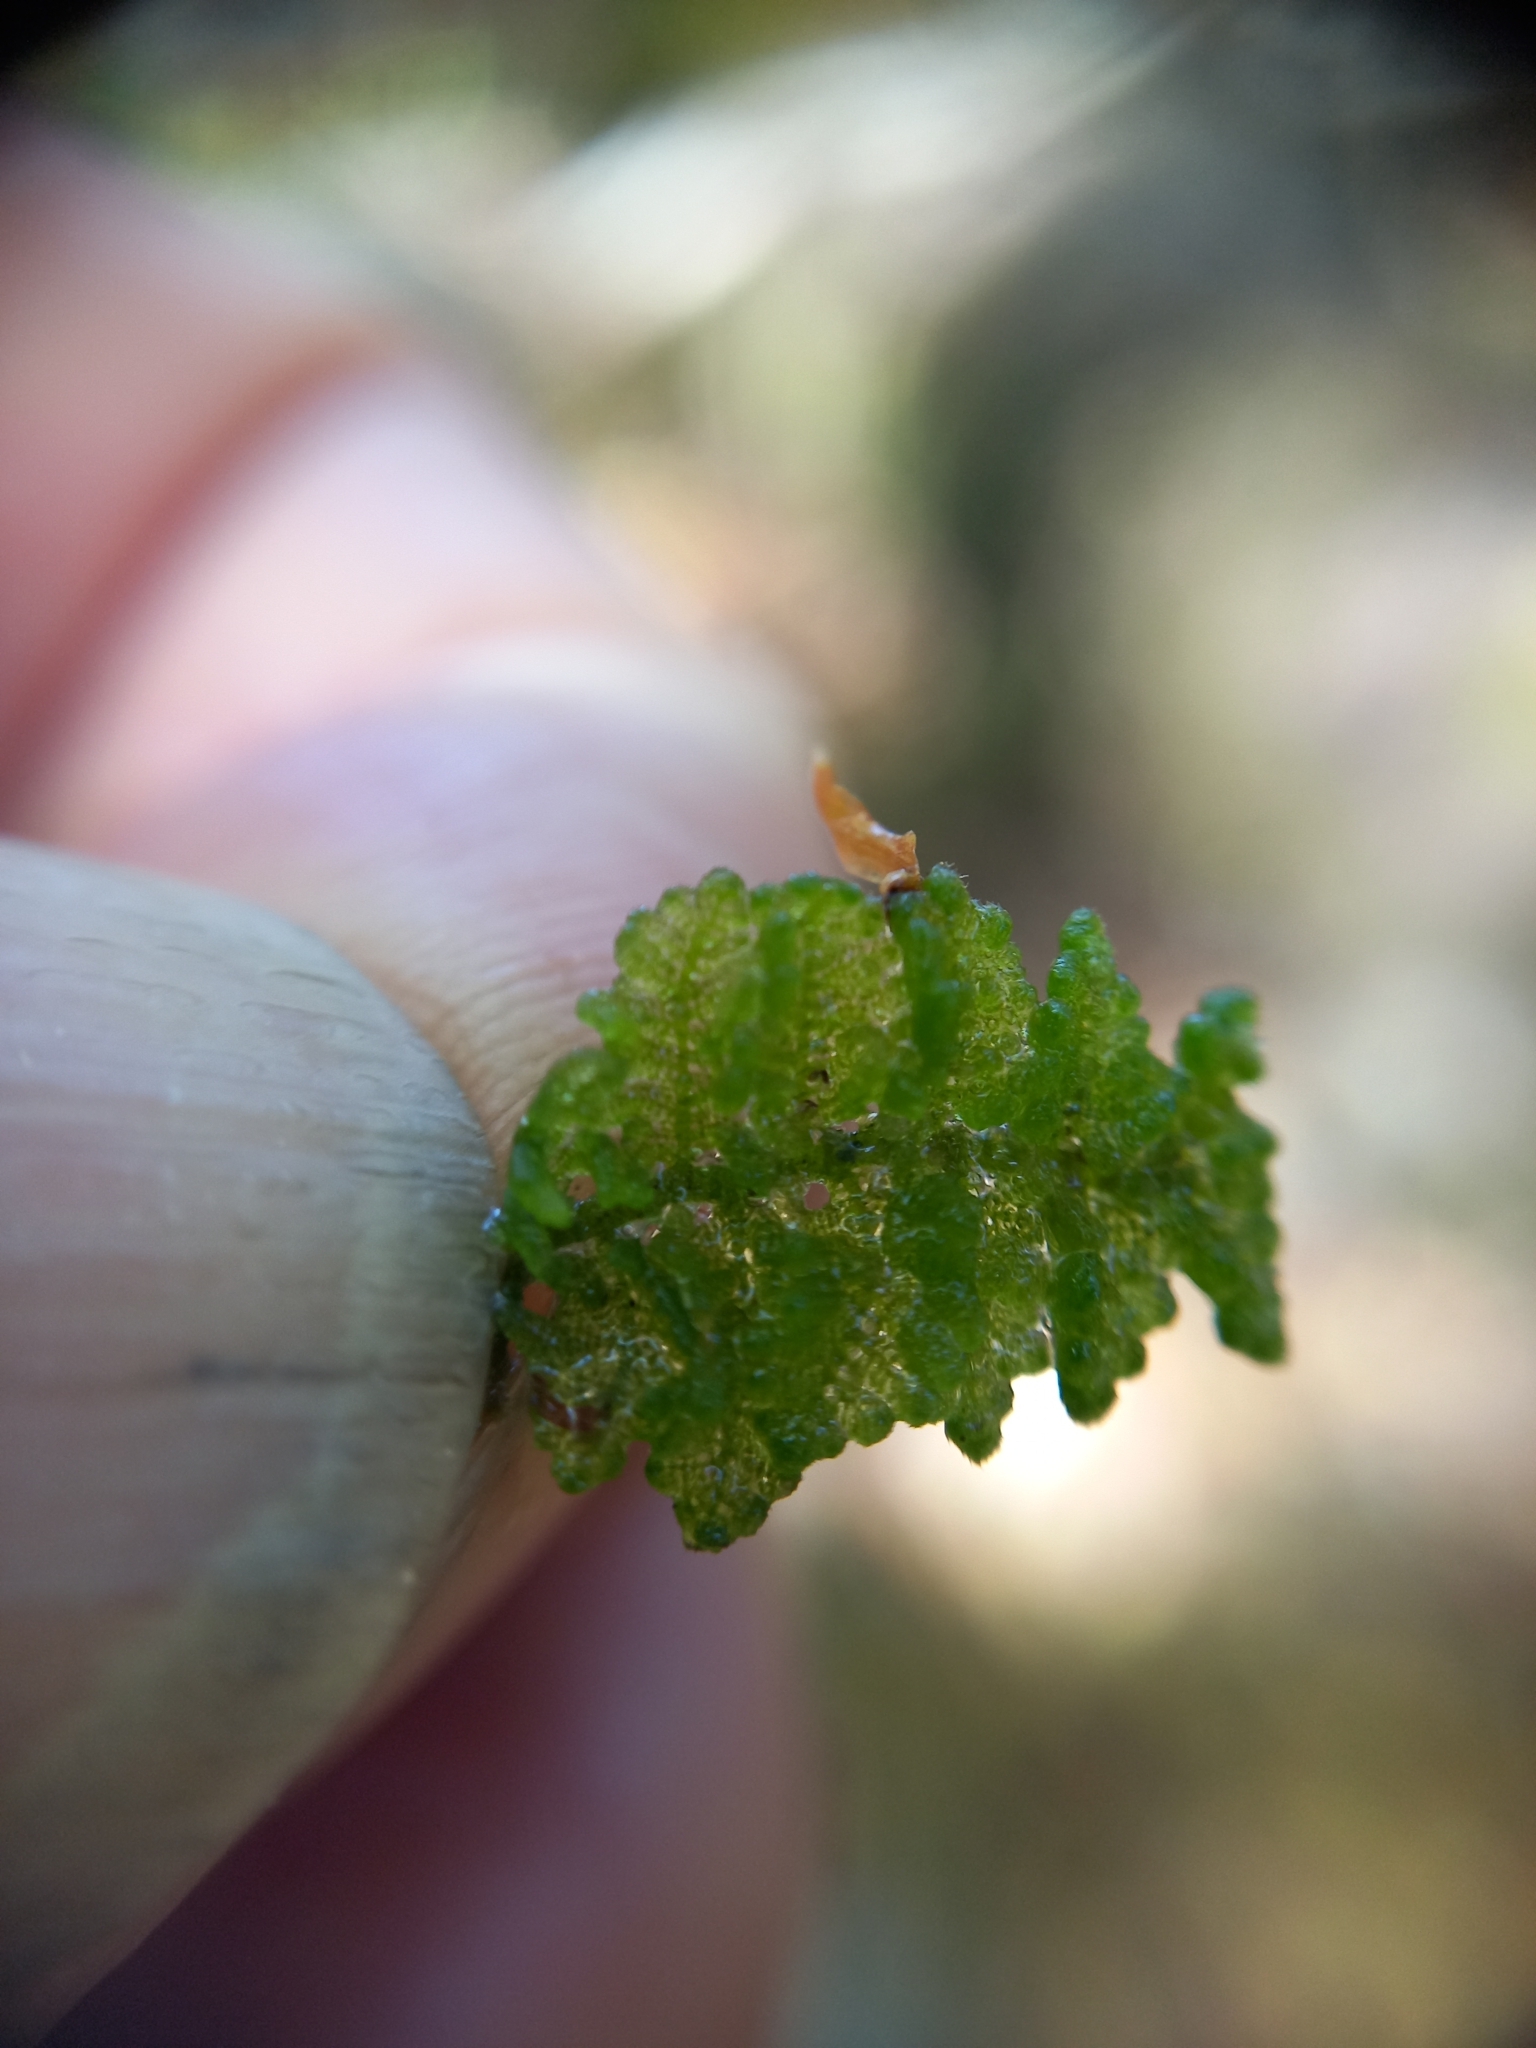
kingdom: Plantae
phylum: Marchantiophyta
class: Jungermanniopsida
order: Porellales
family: Lepidolaenaceae
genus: Lepidogyna
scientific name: Lepidogyna hodgsoniae
